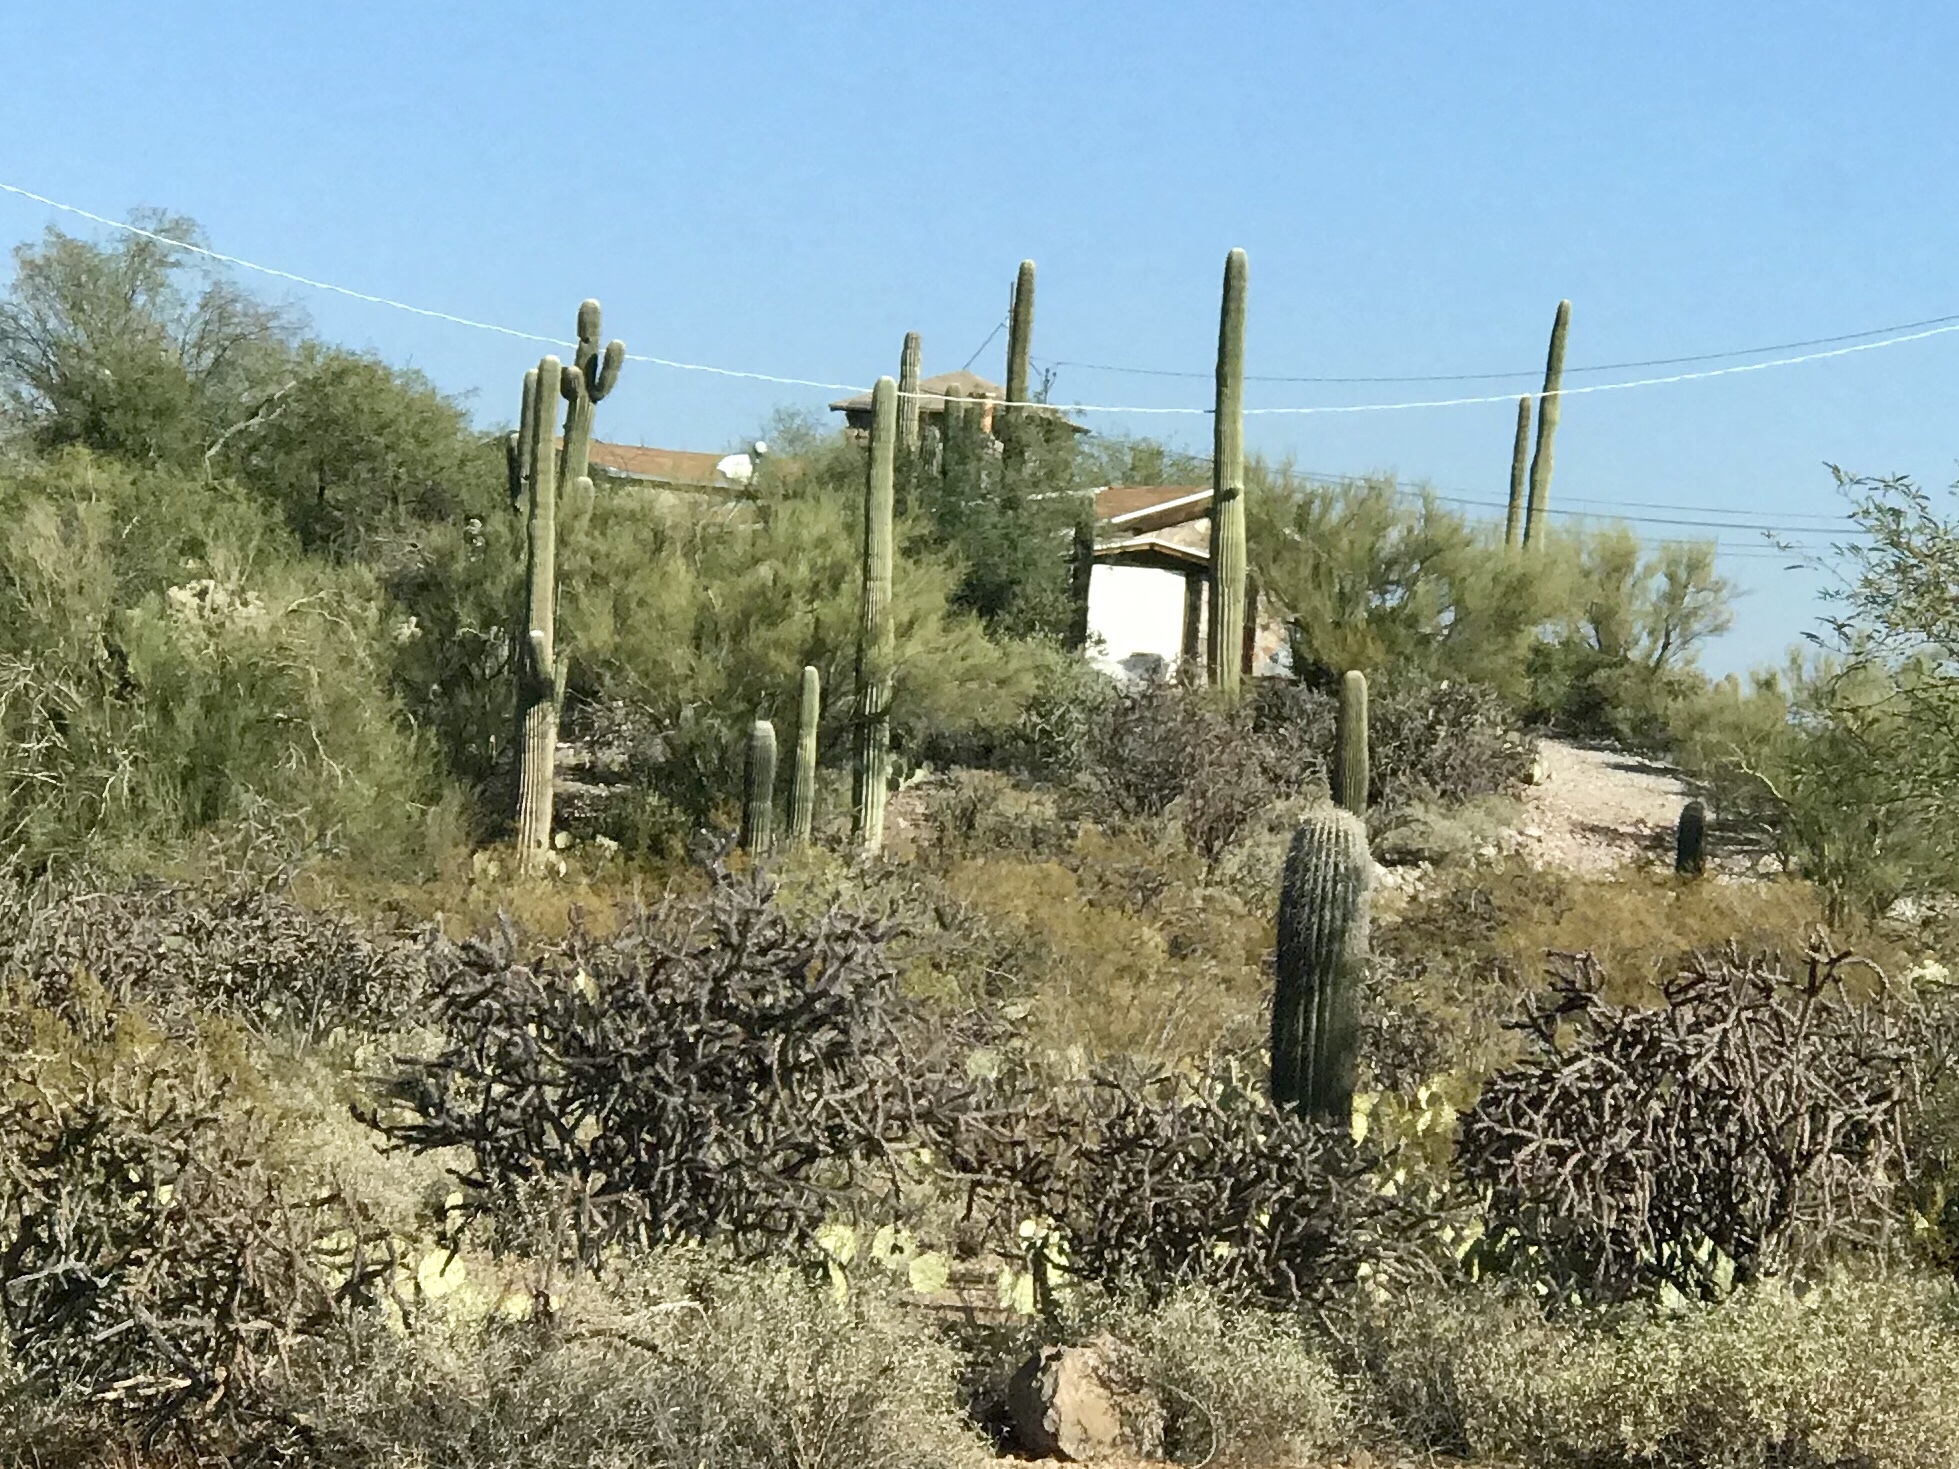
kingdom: Plantae
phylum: Tracheophyta
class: Magnoliopsida
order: Caryophyllales
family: Cactaceae
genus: Carnegiea
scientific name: Carnegiea gigantea
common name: Saguaro
